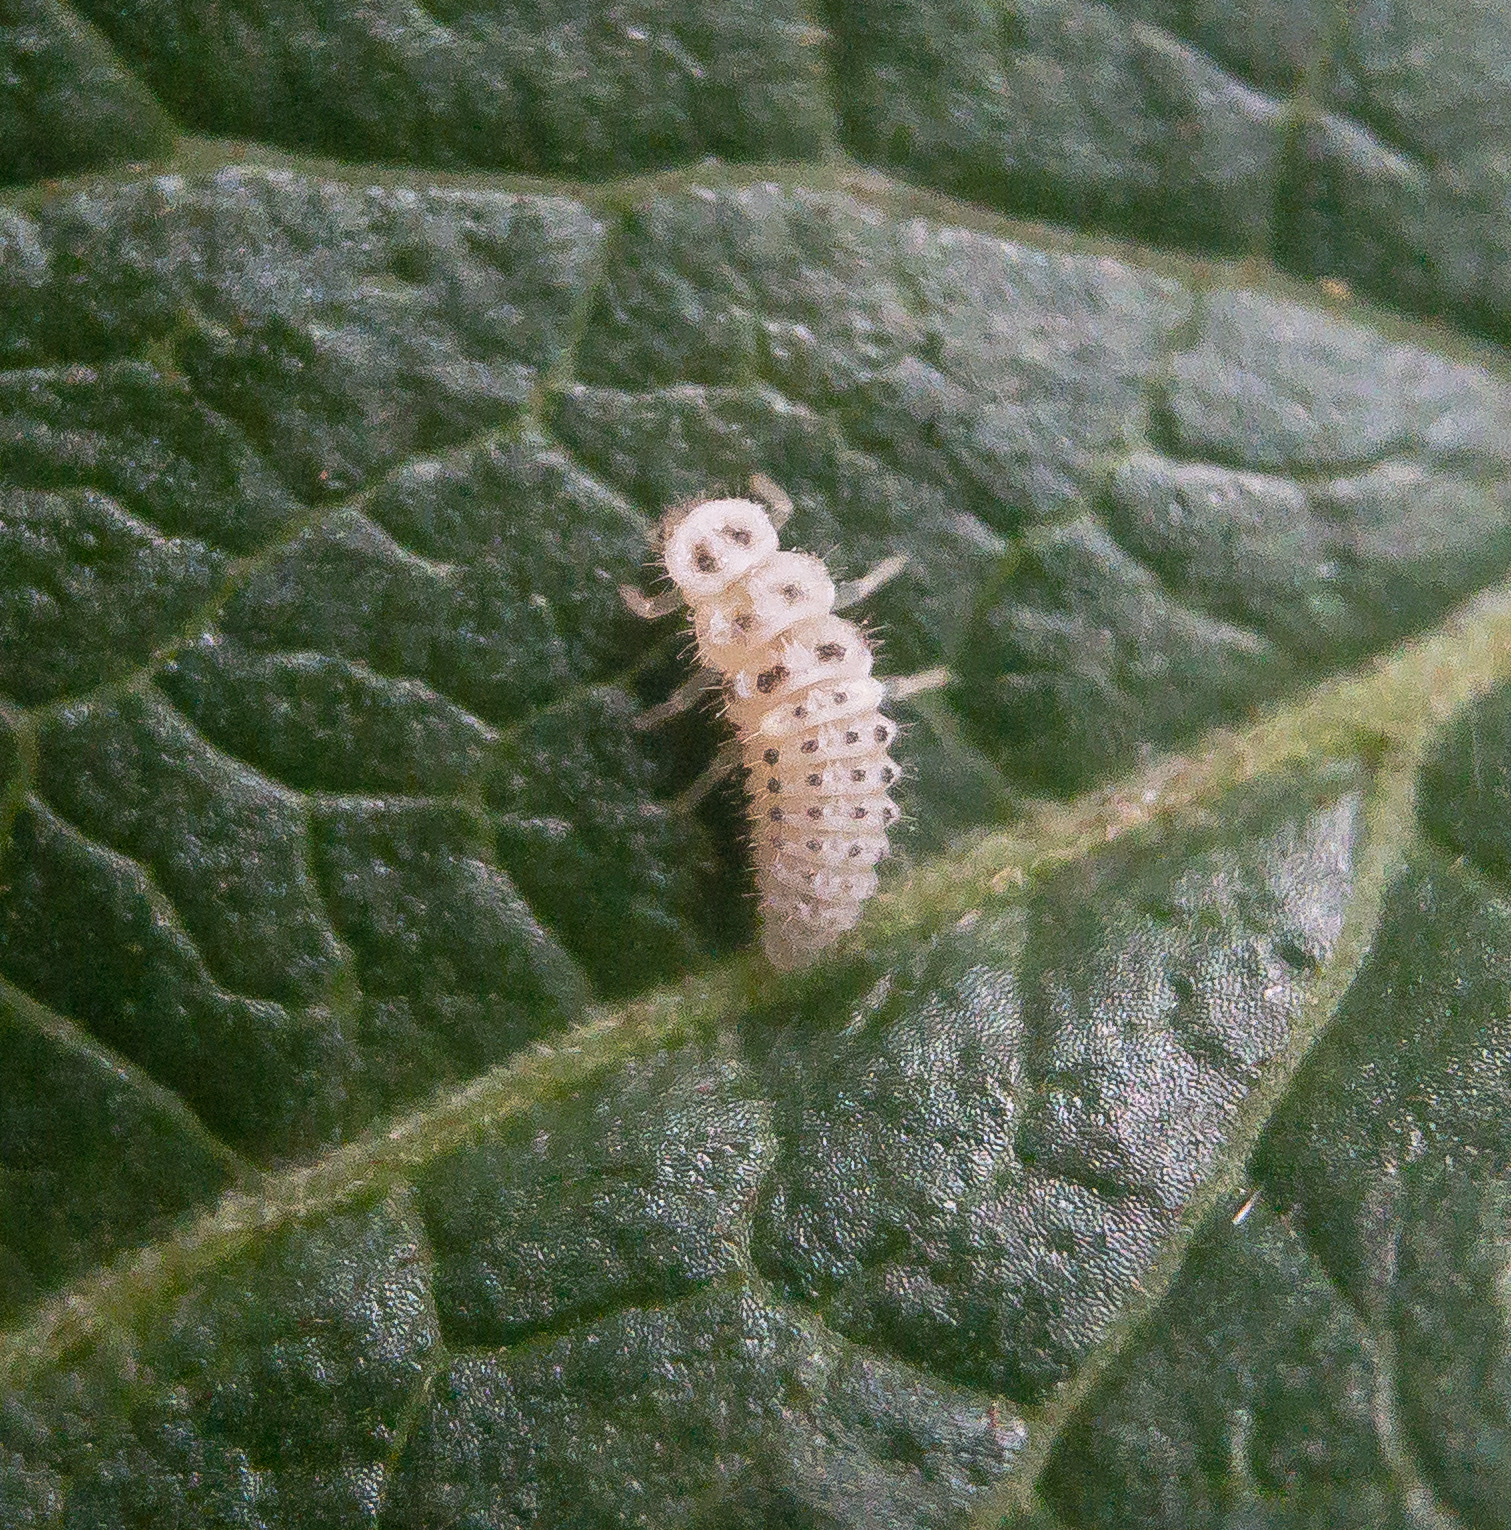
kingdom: Animalia
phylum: Arthropoda
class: Insecta
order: Coleoptera
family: Coccinellidae
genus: Psyllobora
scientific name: Psyllobora vigintimaculata
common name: Ladybird beetle
